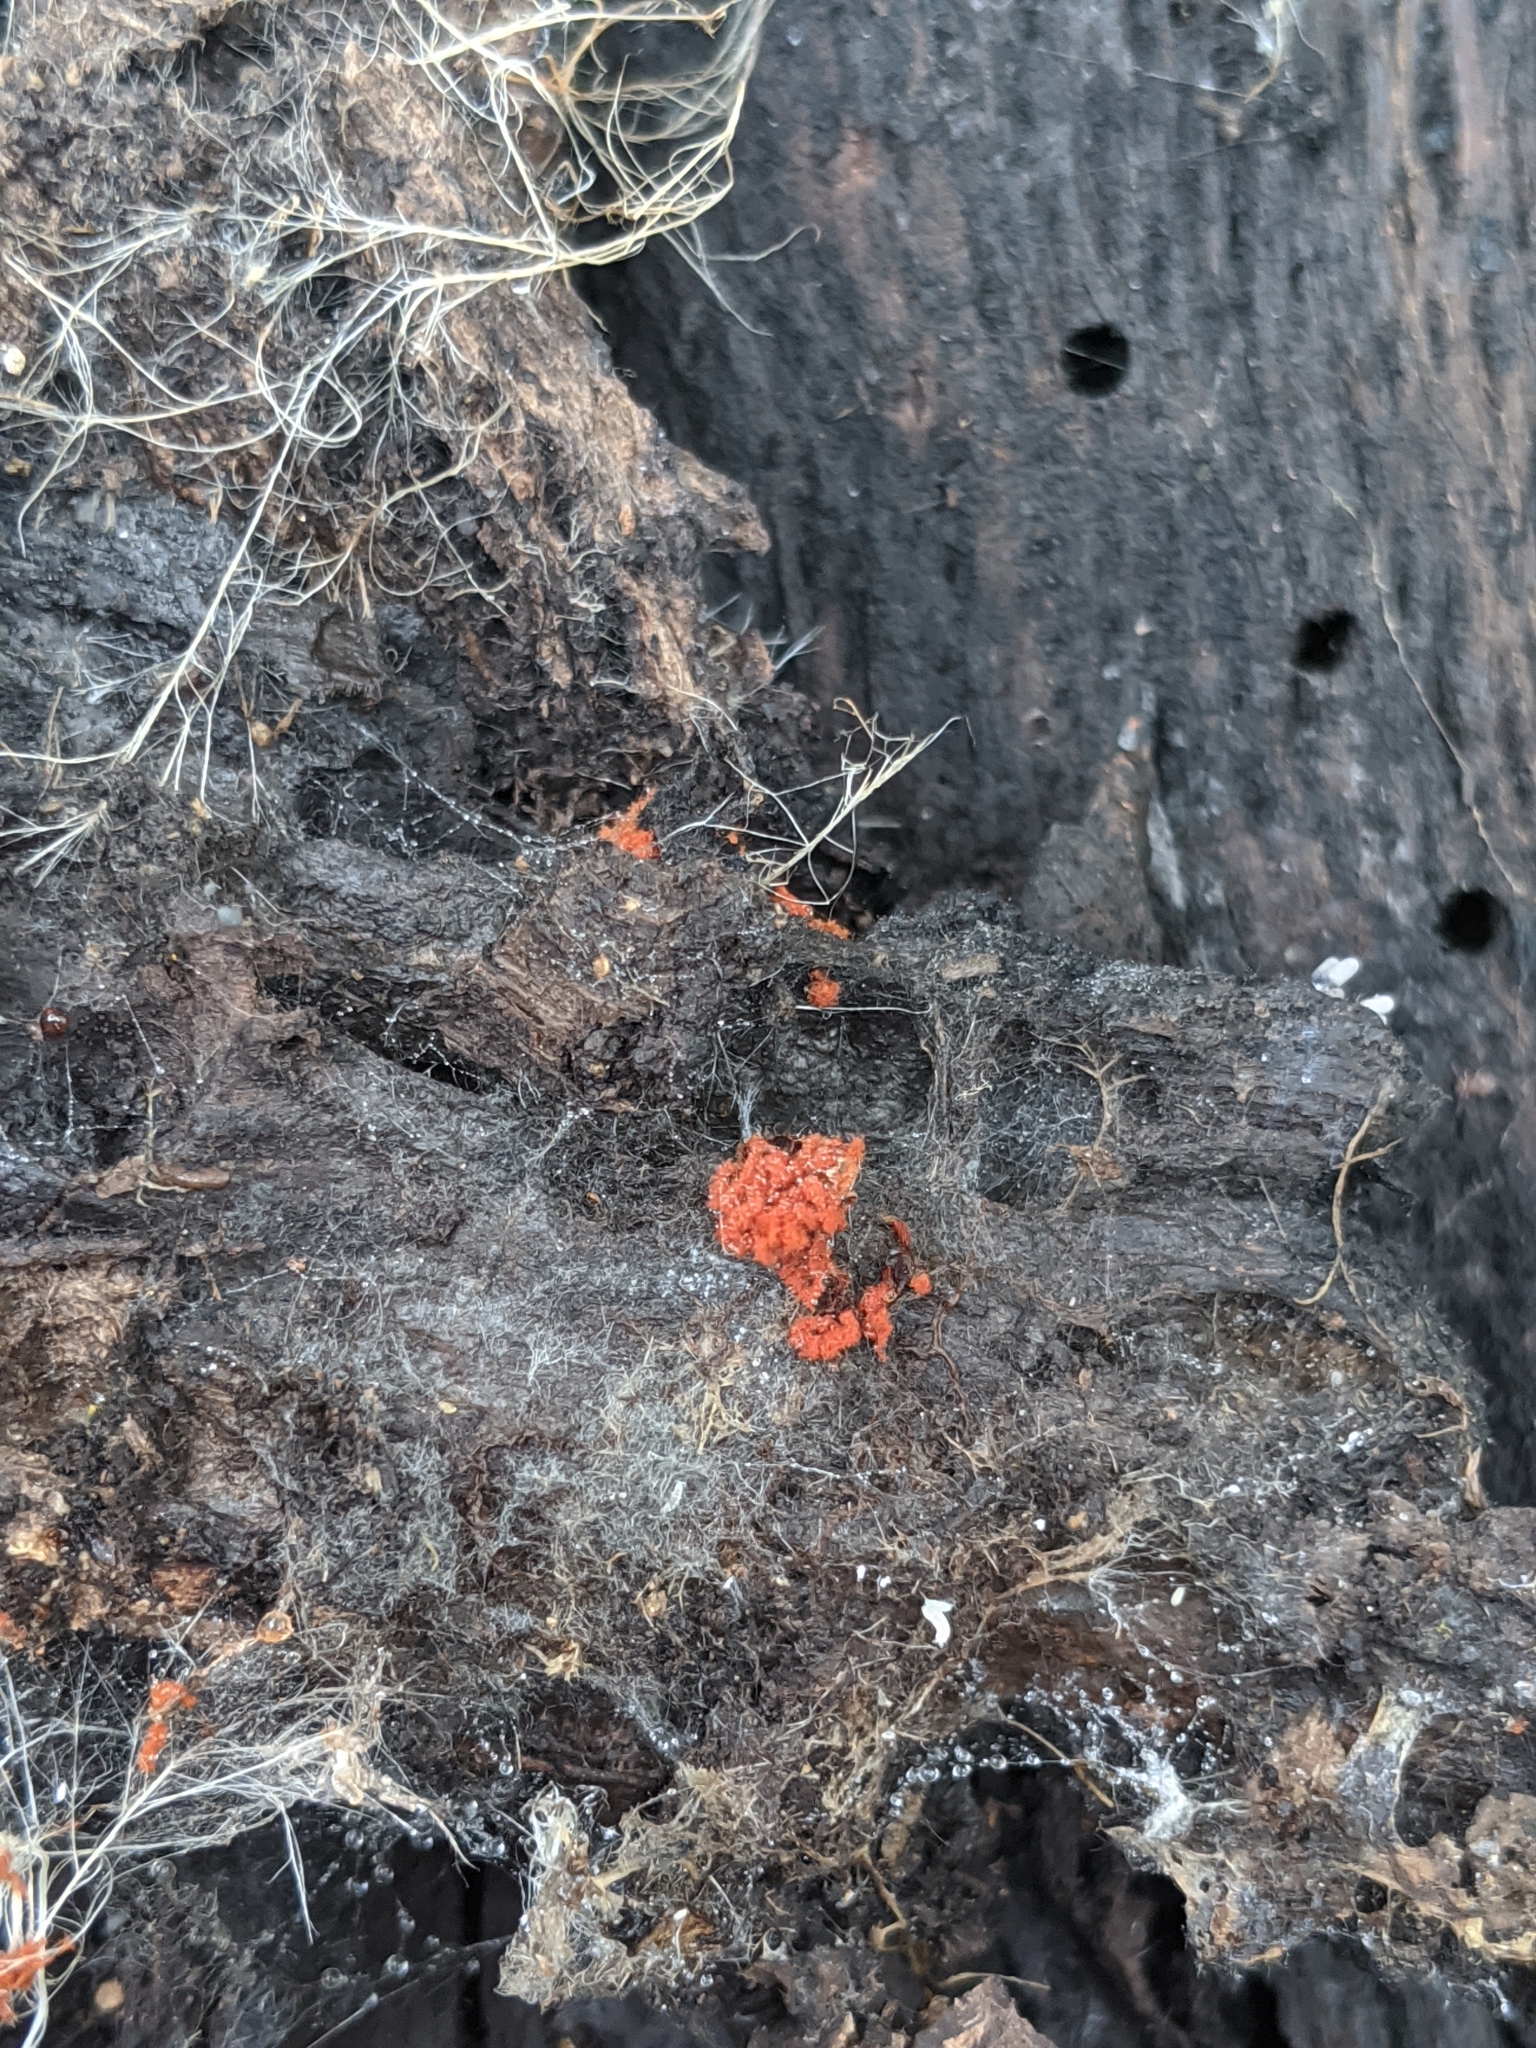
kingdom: Protozoa
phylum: Mycetozoa
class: Myxomycetes
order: Trichiales
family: Trichiaceae
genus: Metatrichia
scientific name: Metatrichia vesparia
